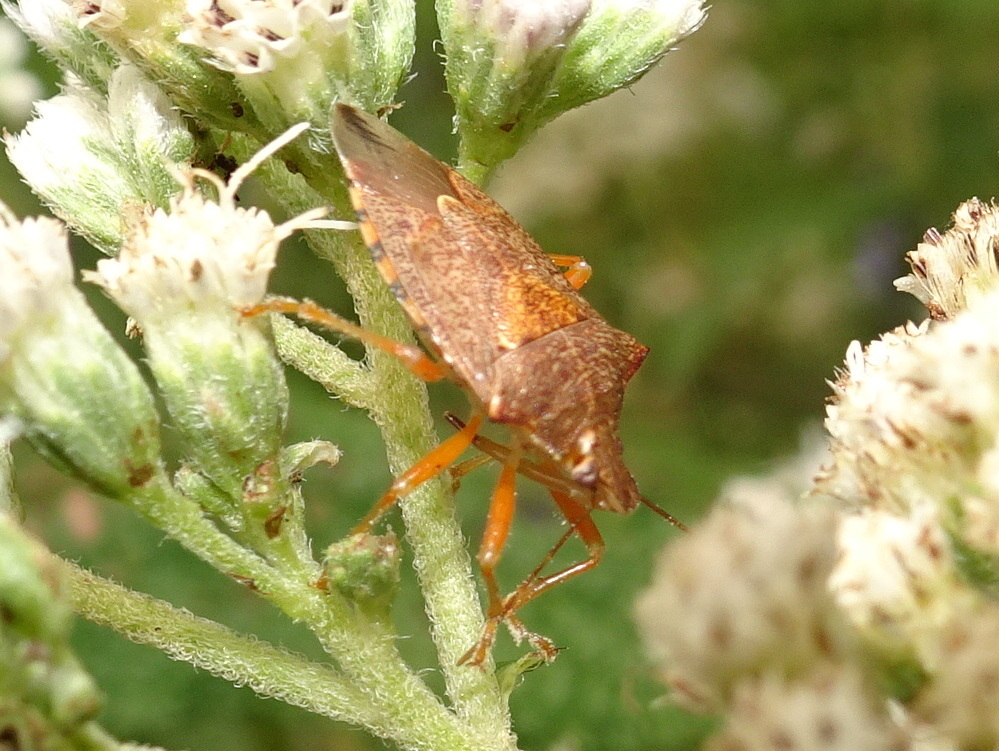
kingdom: Animalia
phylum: Arthropoda
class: Insecta
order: Hemiptera
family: Pentatomidae
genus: Podisus
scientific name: Podisus maculiventris
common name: Spined soldier bug
